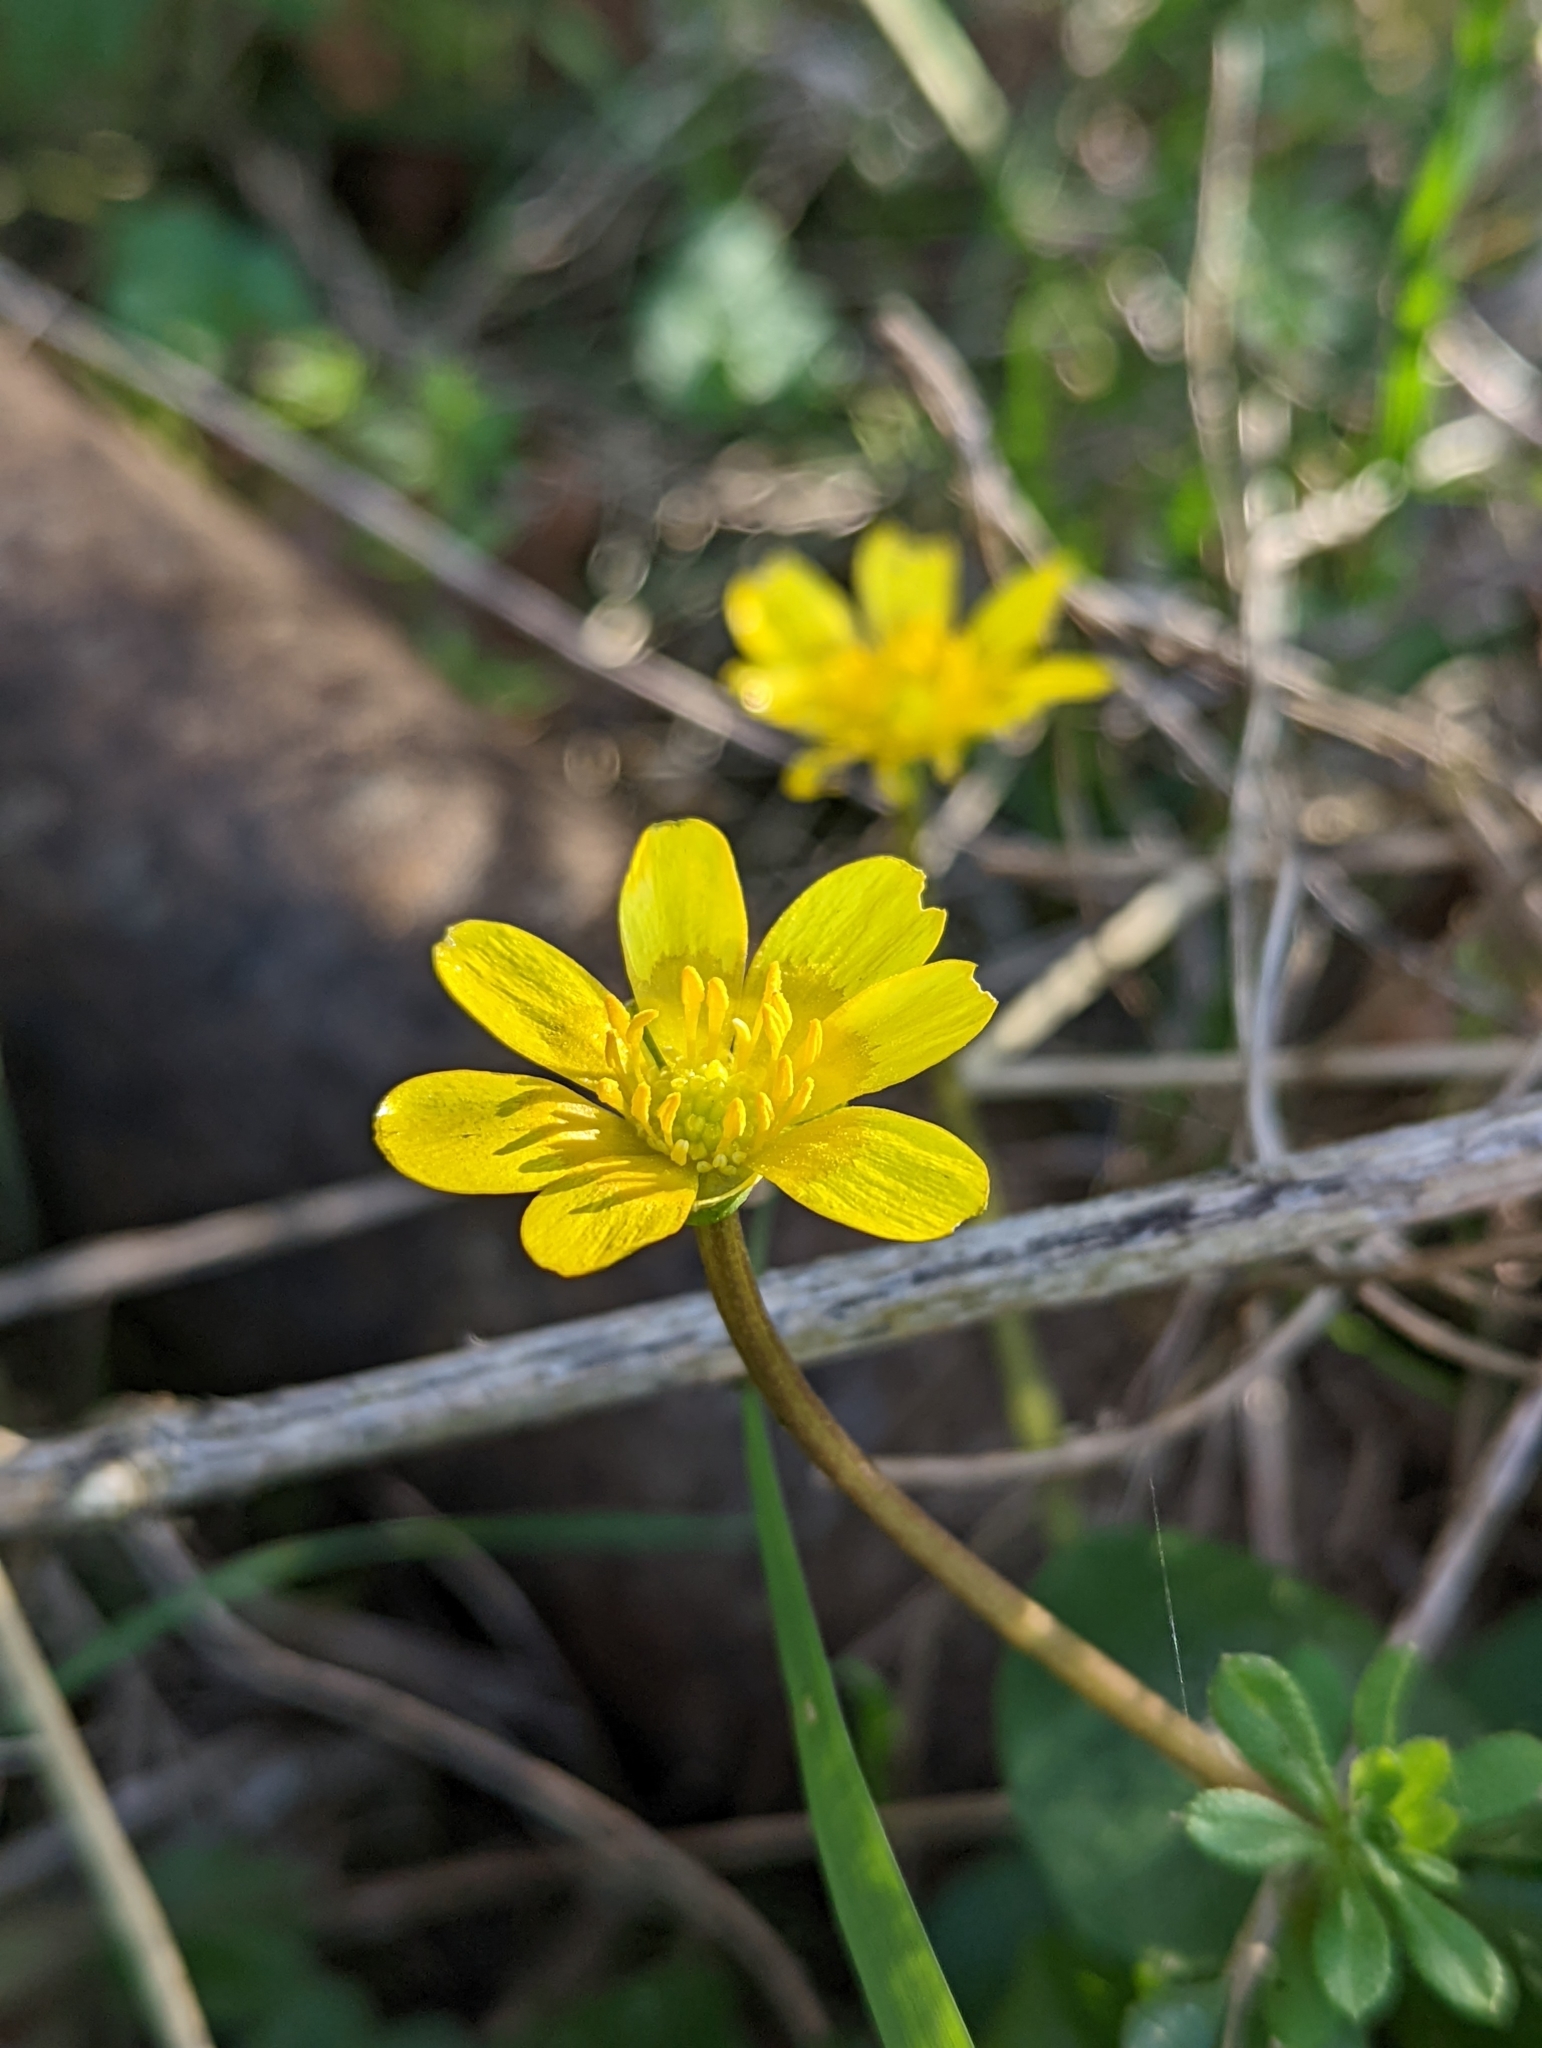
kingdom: Plantae
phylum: Tracheophyta
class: Magnoliopsida
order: Ranunculales
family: Ranunculaceae
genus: Ficaria
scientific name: Ficaria verna
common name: Lesser celandine
